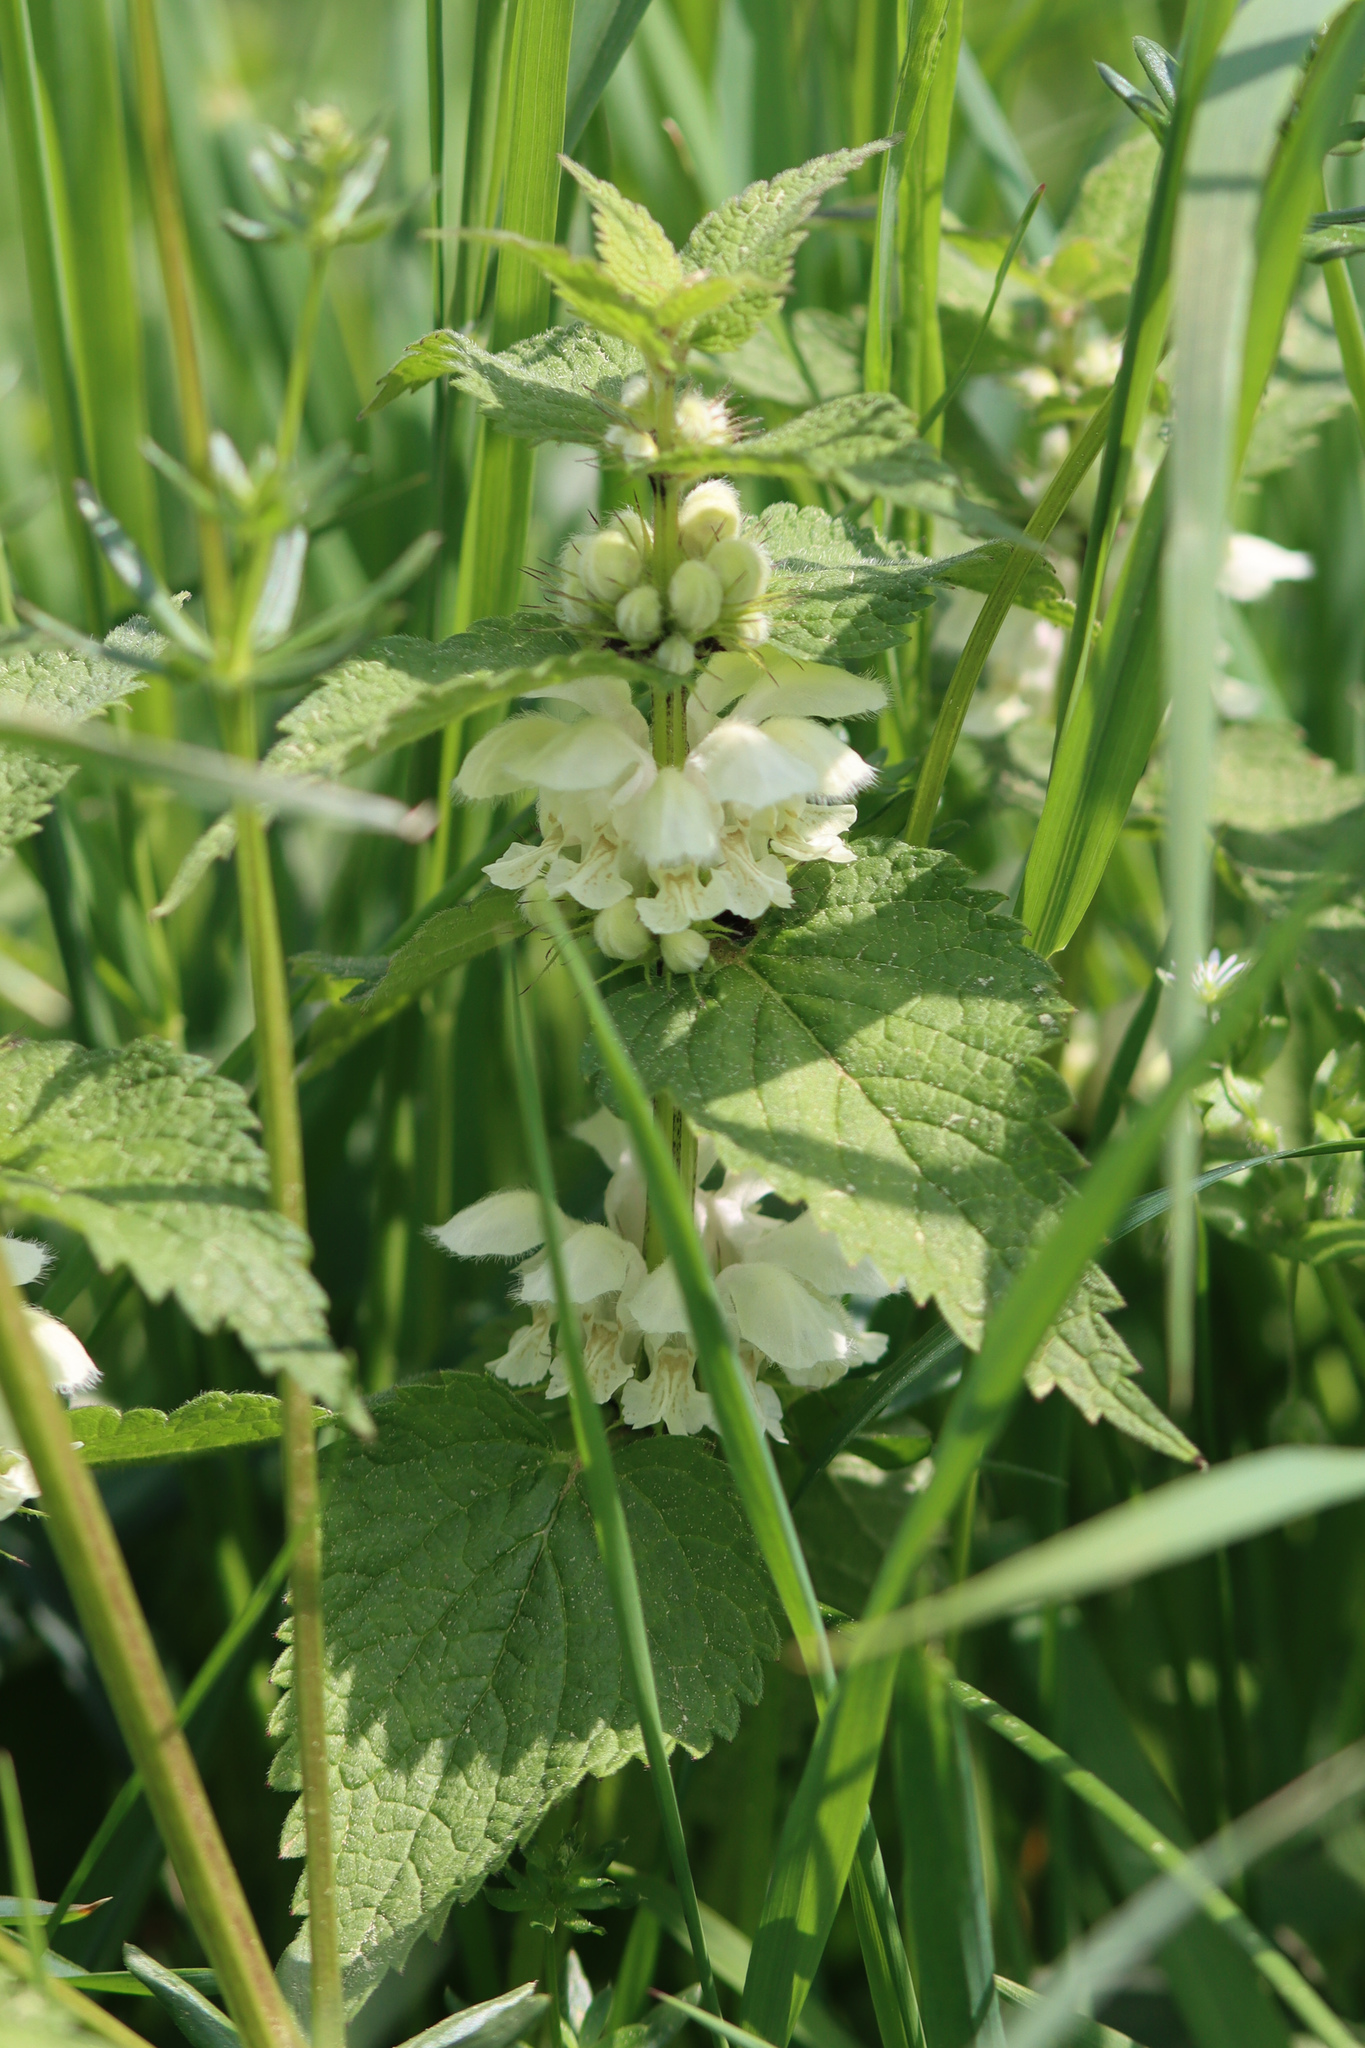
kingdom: Plantae
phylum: Tracheophyta
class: Magnoliopsida
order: Lamiales
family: Lamiaceae
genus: Lamium
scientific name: Lamium album
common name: White dead-nettle
